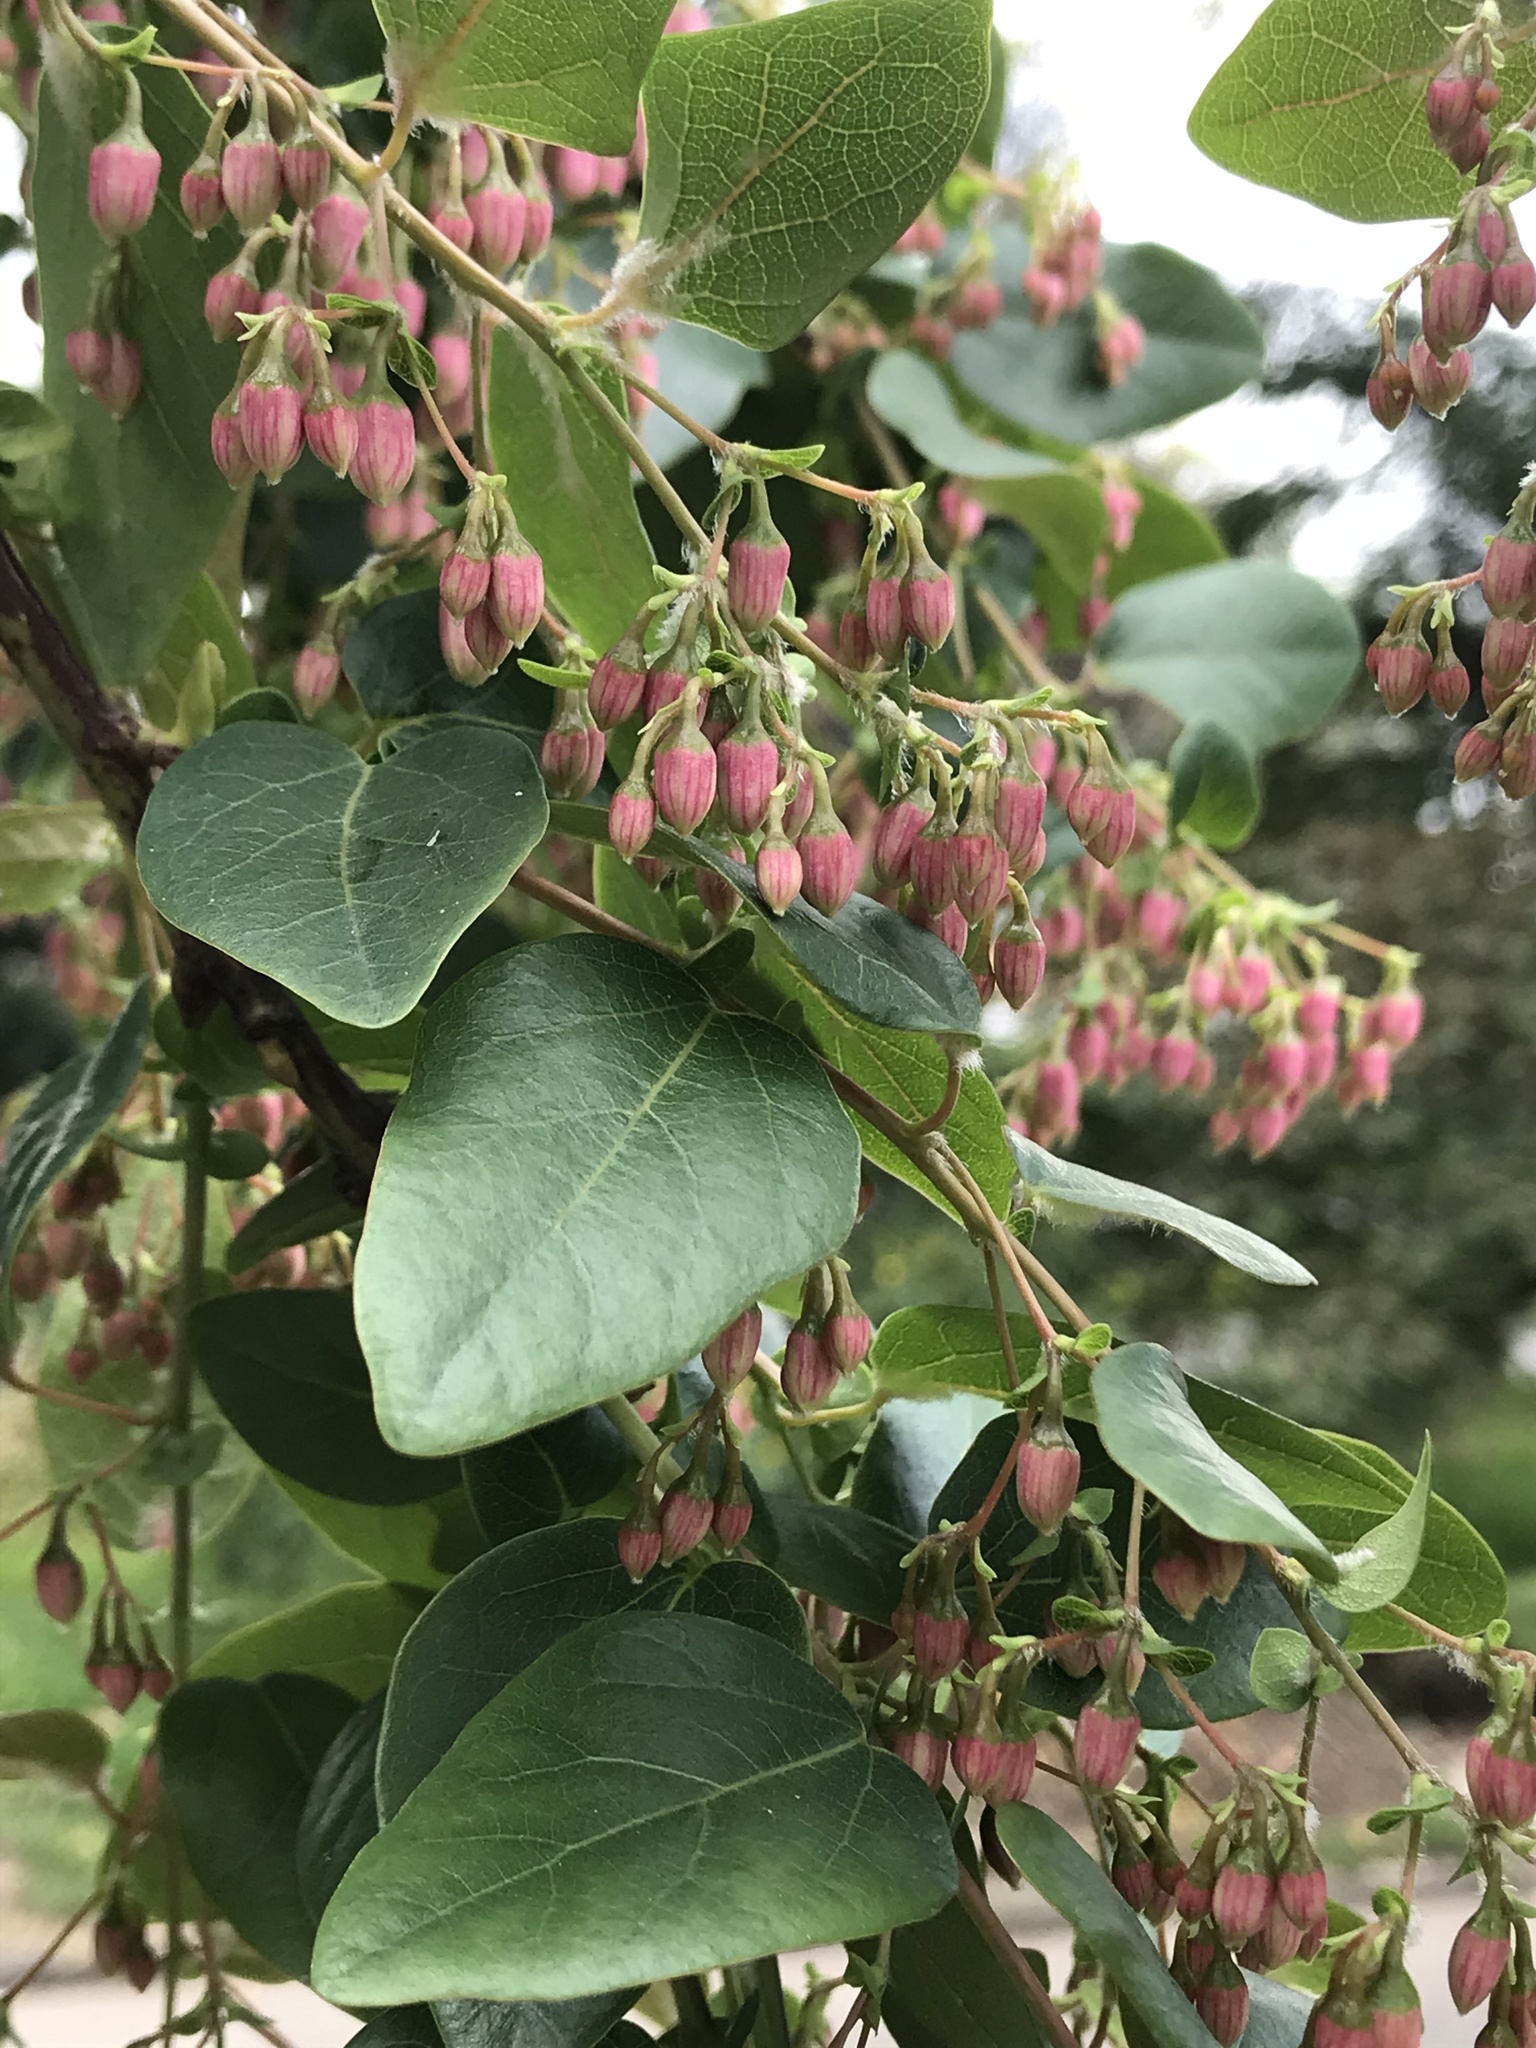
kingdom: Plantae
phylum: Tracheophyta
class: Magnoliopsida
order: Oxalidales
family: Elaeocarpaceae
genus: Vallea
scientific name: Vallea stipularis
